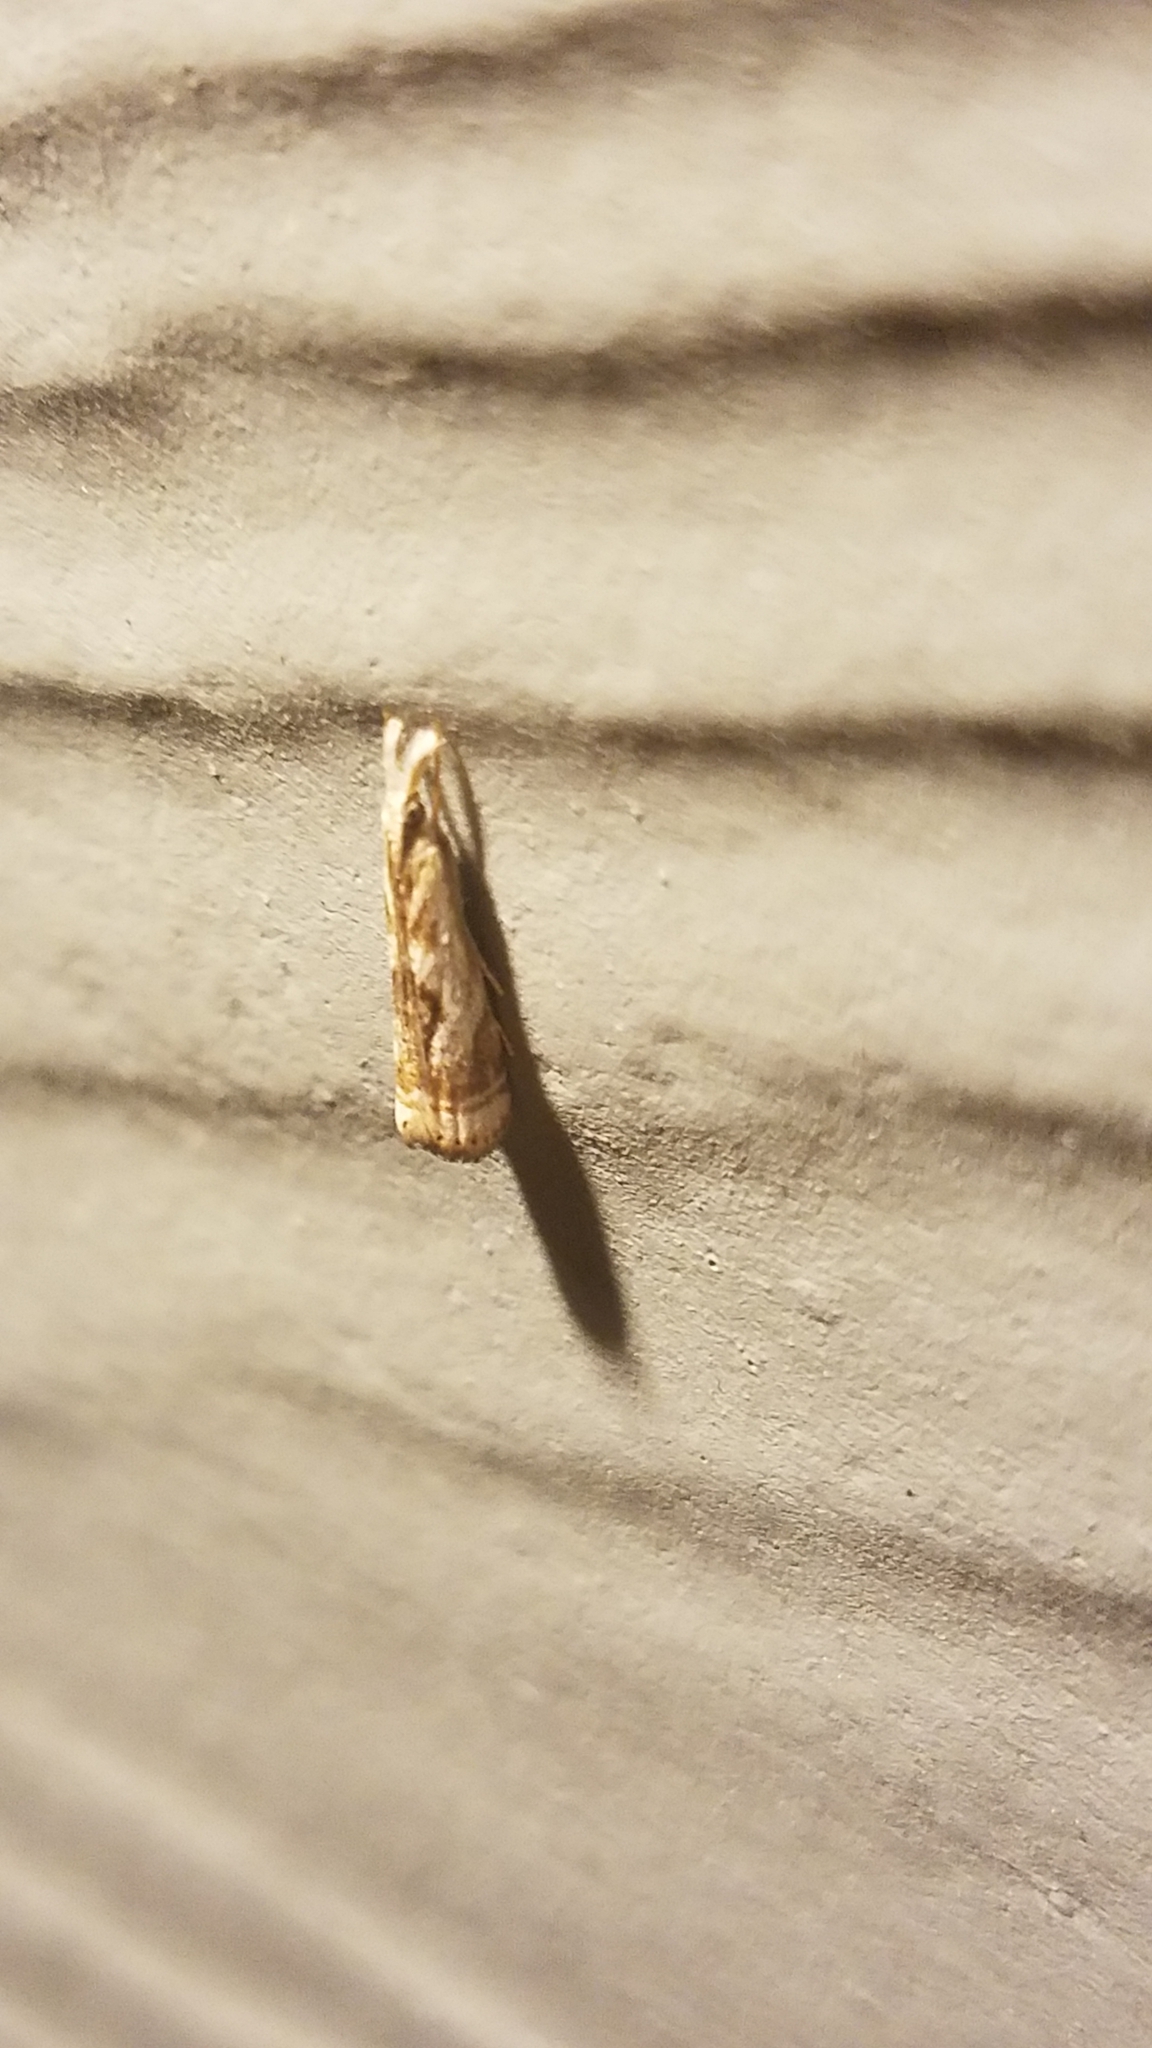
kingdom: Animalia
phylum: Arthropoda
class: Insecta
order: Lepidoptera
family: Crambidae
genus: Microcrambus
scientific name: Microcrambus elegans
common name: Elegant grass-veneer
